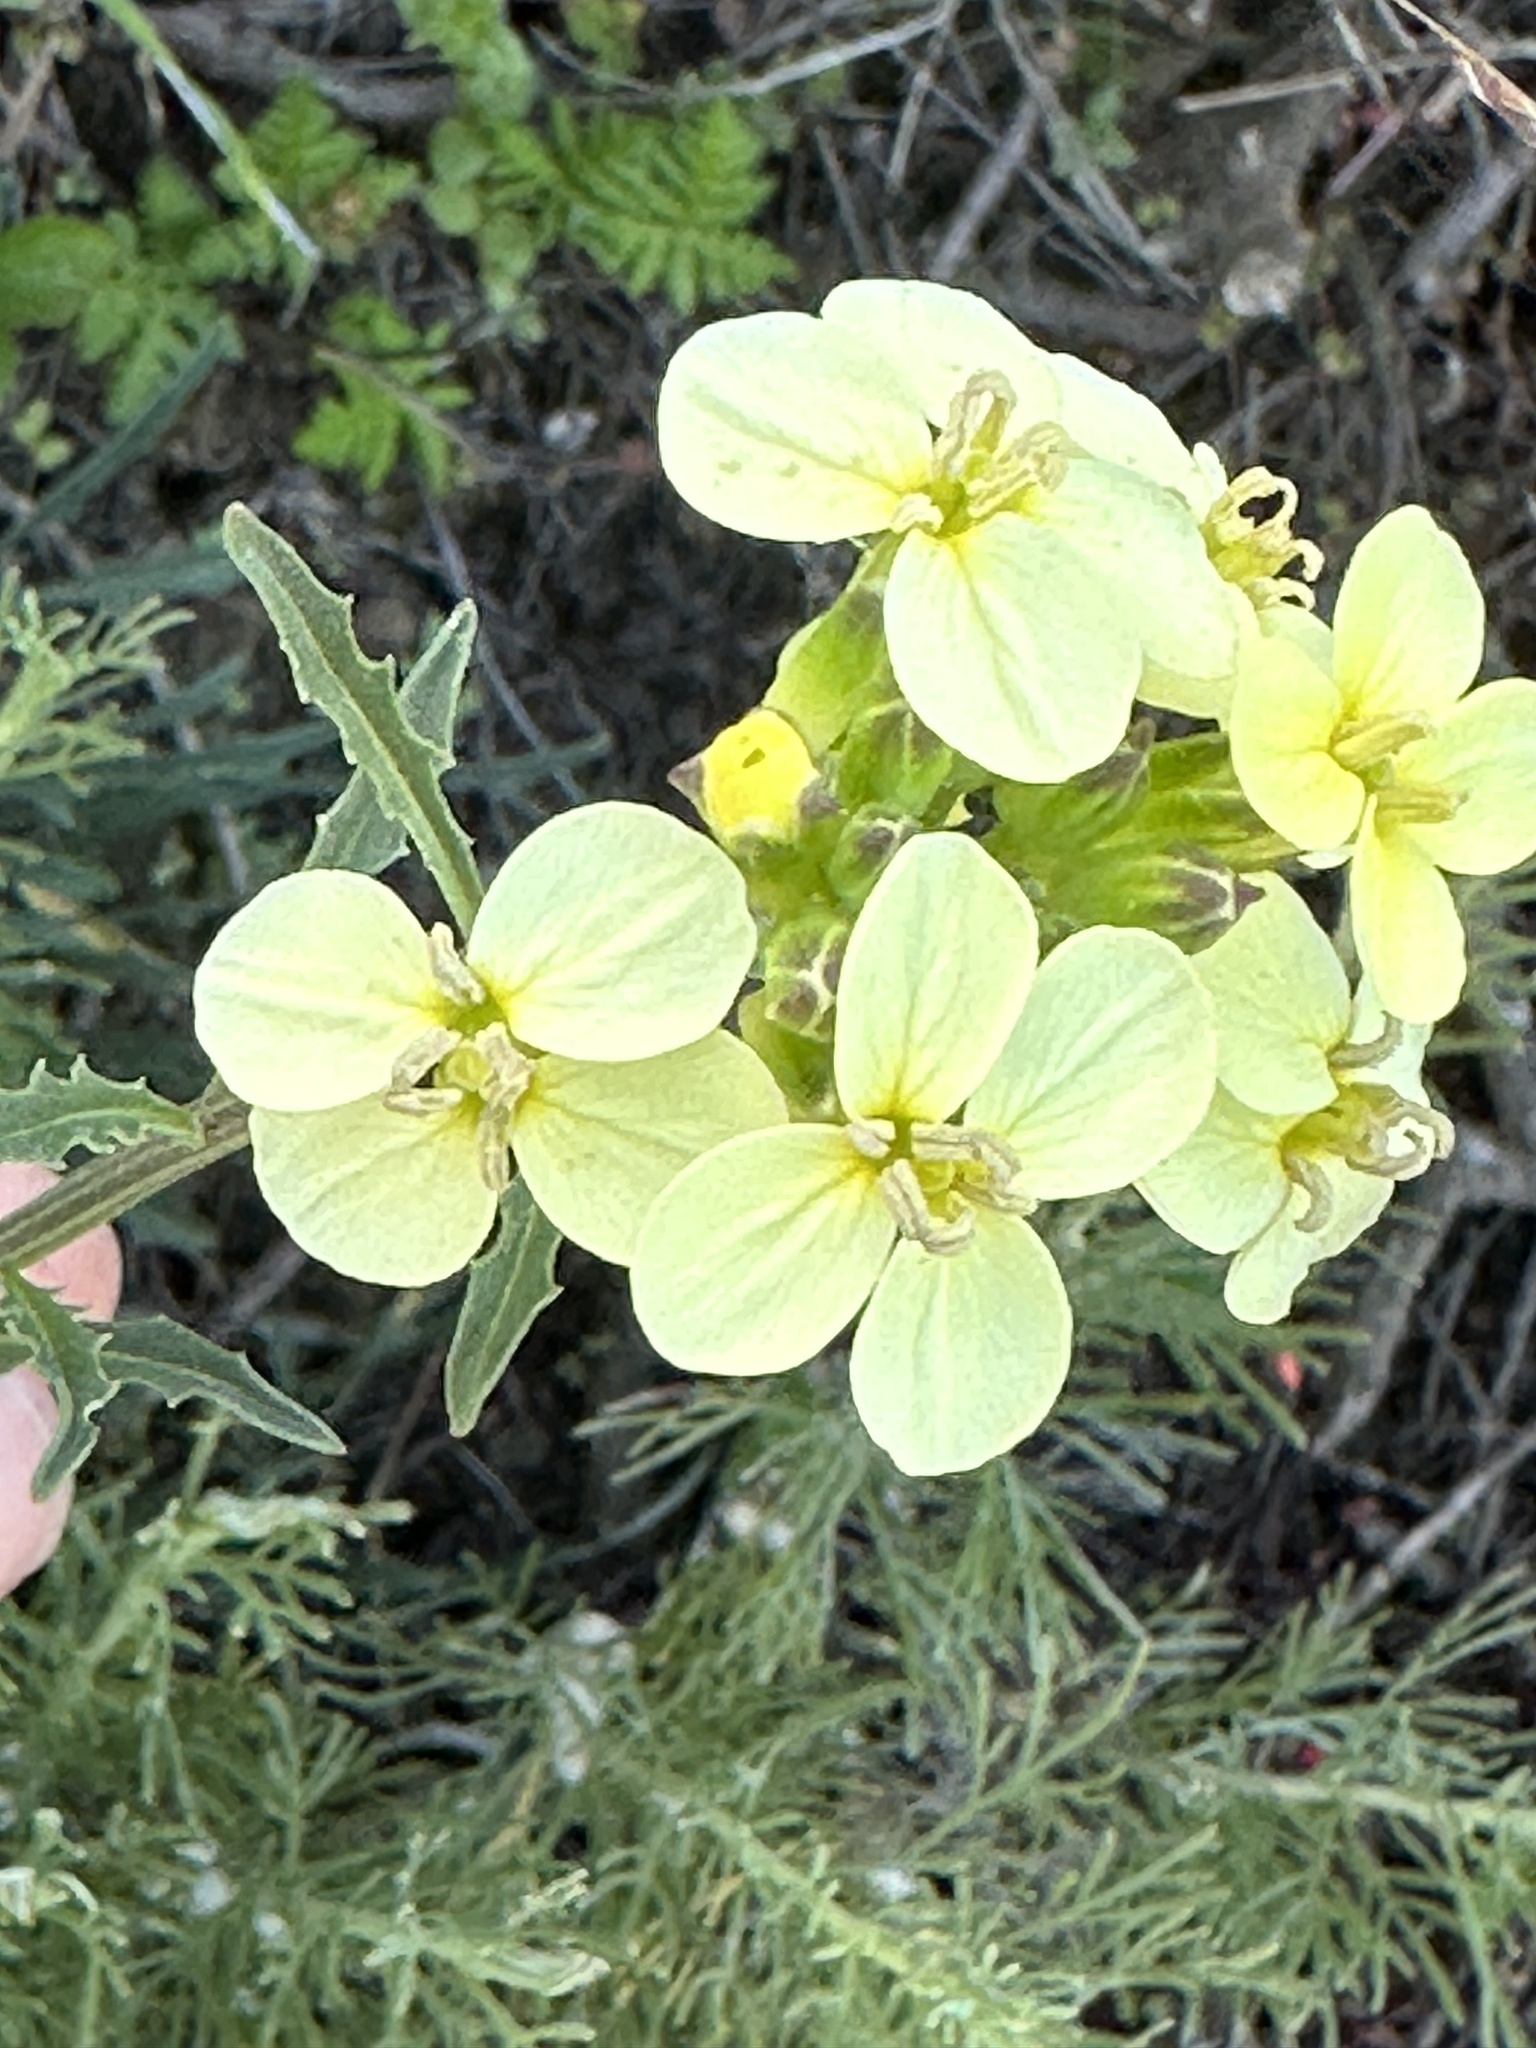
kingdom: Plantae
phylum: Tracheophyta
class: Magnoliopsida
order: Brassicales
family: Brassicaceae
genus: Erysimum
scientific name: Erysimum franciscanum
